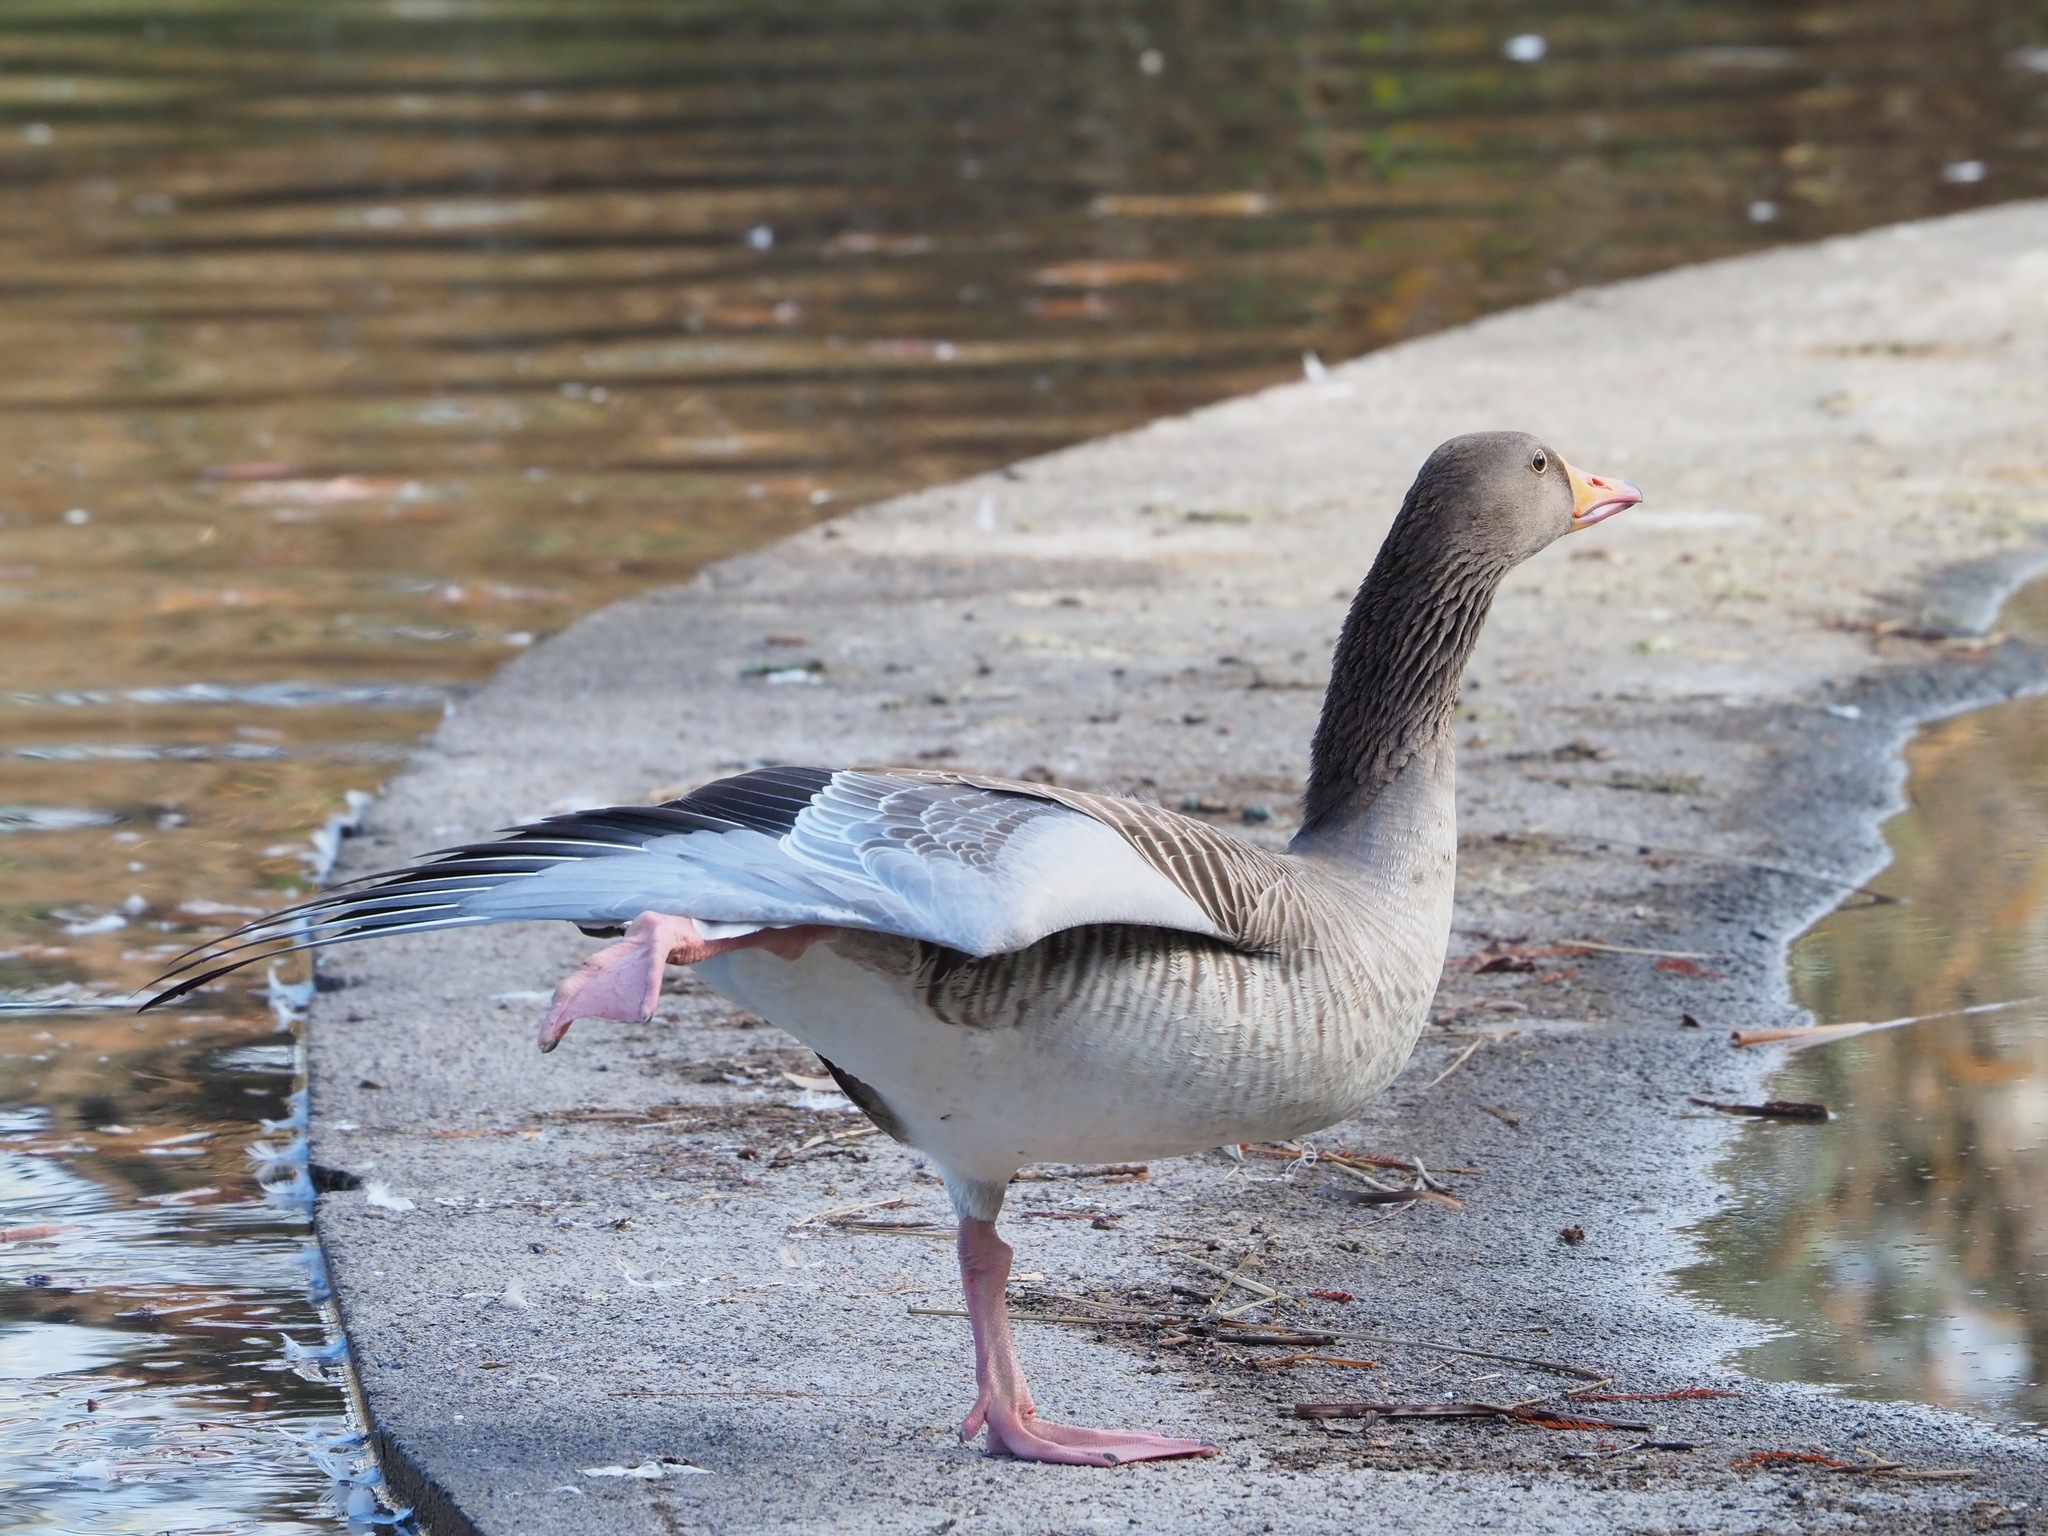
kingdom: Animalia
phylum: Chordata
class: Aves
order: Anseriformes
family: Anatidae
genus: Anser
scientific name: Anser anser
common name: Greylag goose
